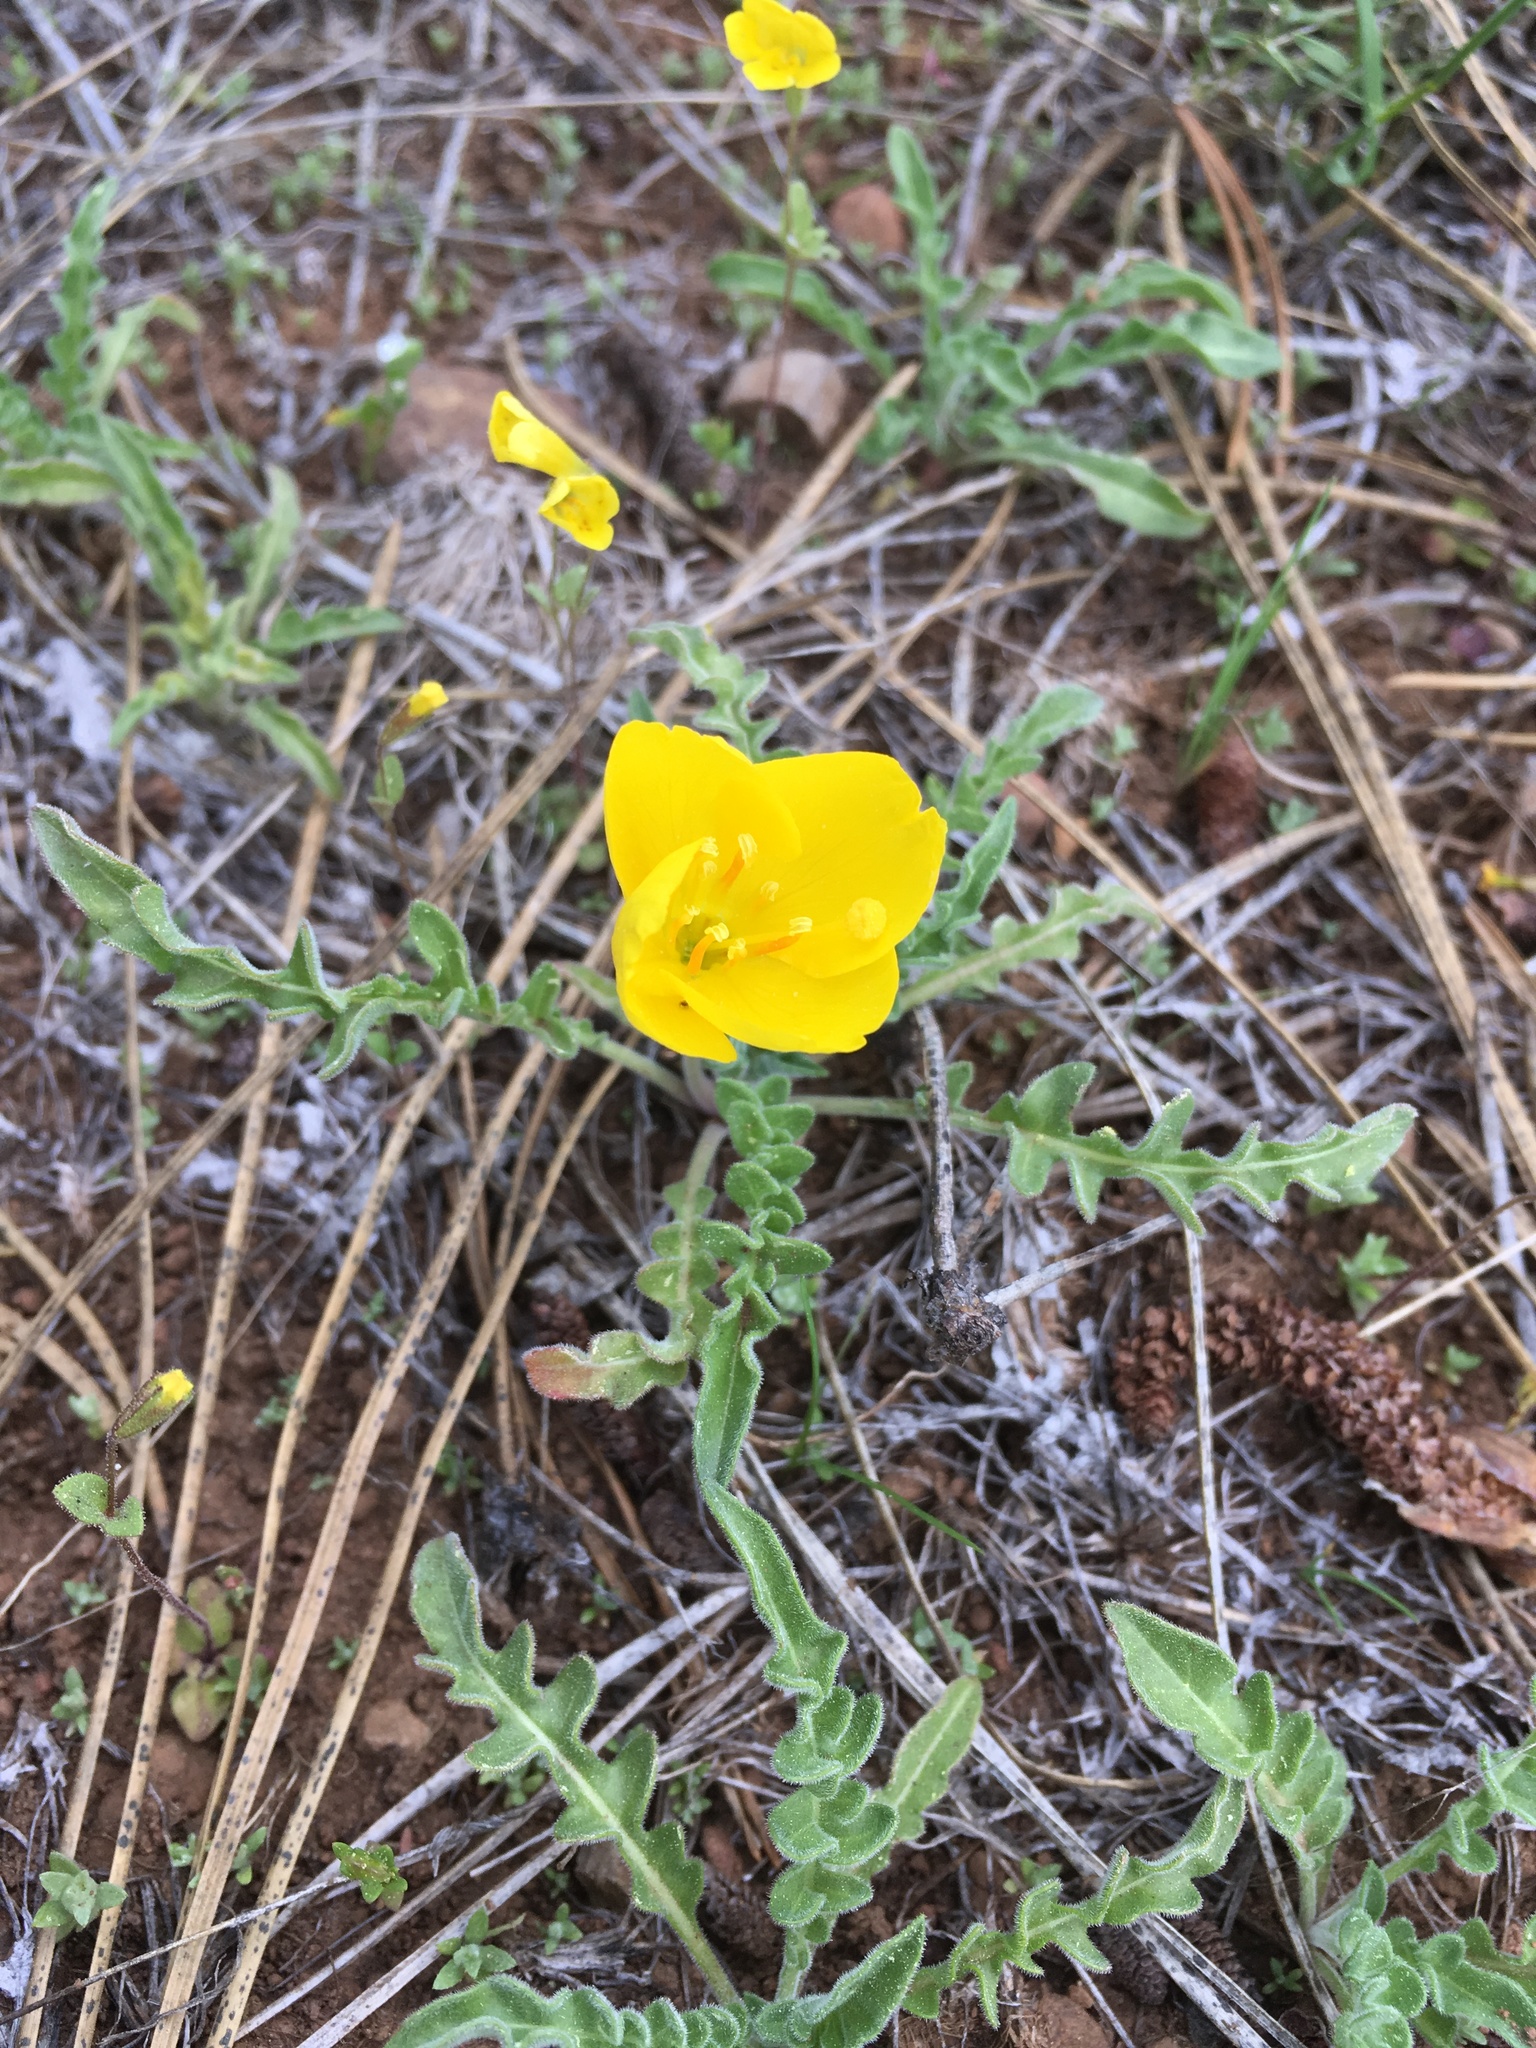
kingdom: Plantae
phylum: Tracheophyta
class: Magnoliopsida
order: Myrtales
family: Onagraceae
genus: Taraxia
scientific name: Taraxia tanacetifolia
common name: Tansyleaf evening primrose
